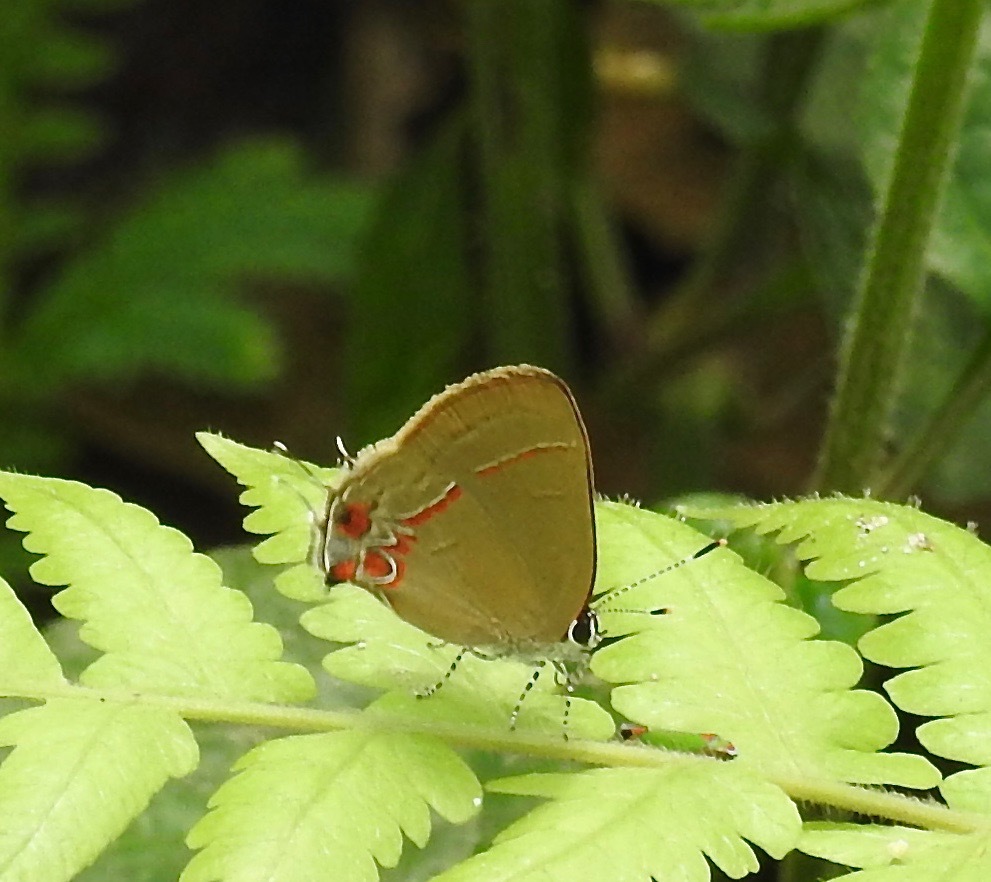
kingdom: Animalia
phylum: Arthropoda
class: Insecta
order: Lepidoptera
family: Lycaenidae
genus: Calycopis
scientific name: Calycopis isobeon
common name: Dusky-blue groundstreak
